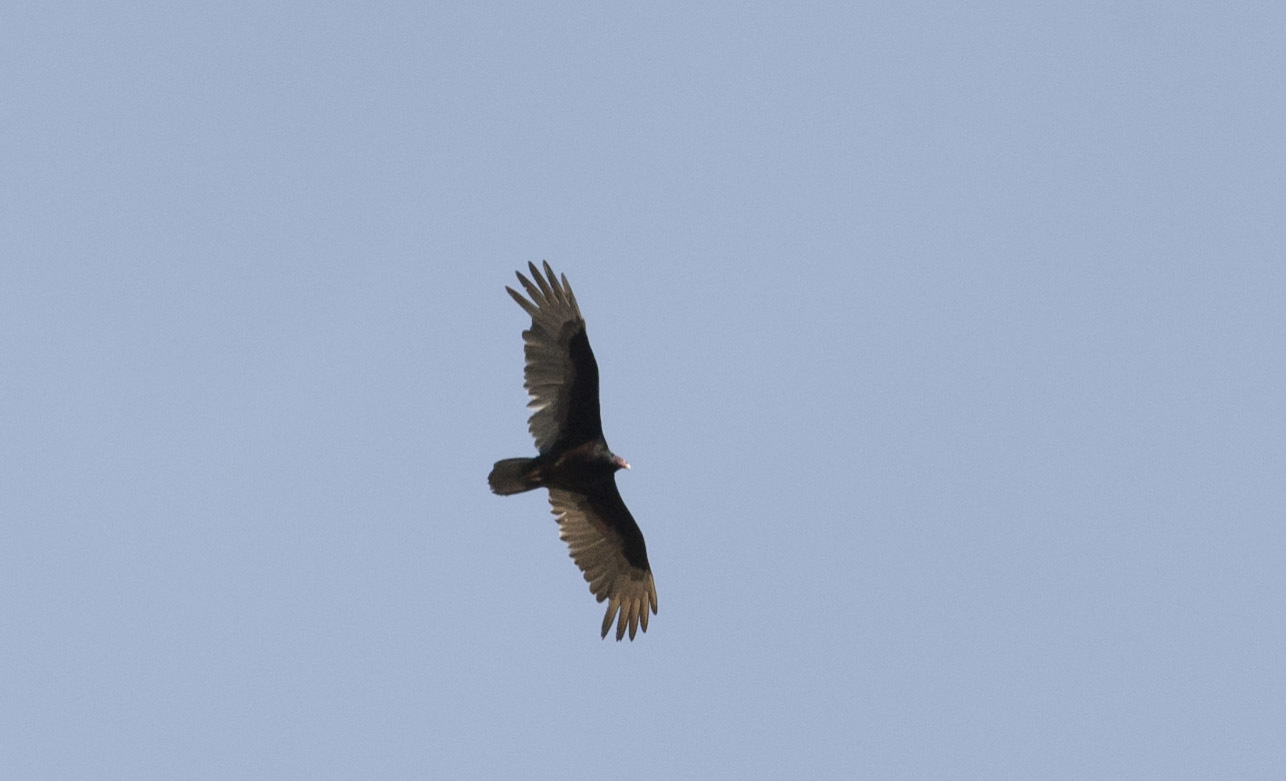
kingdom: Animalia
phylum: Chordata
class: Aves
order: Accipitriformes
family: Cathartidae
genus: Cathartes
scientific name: Cathartes aura
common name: Turkey vulture
